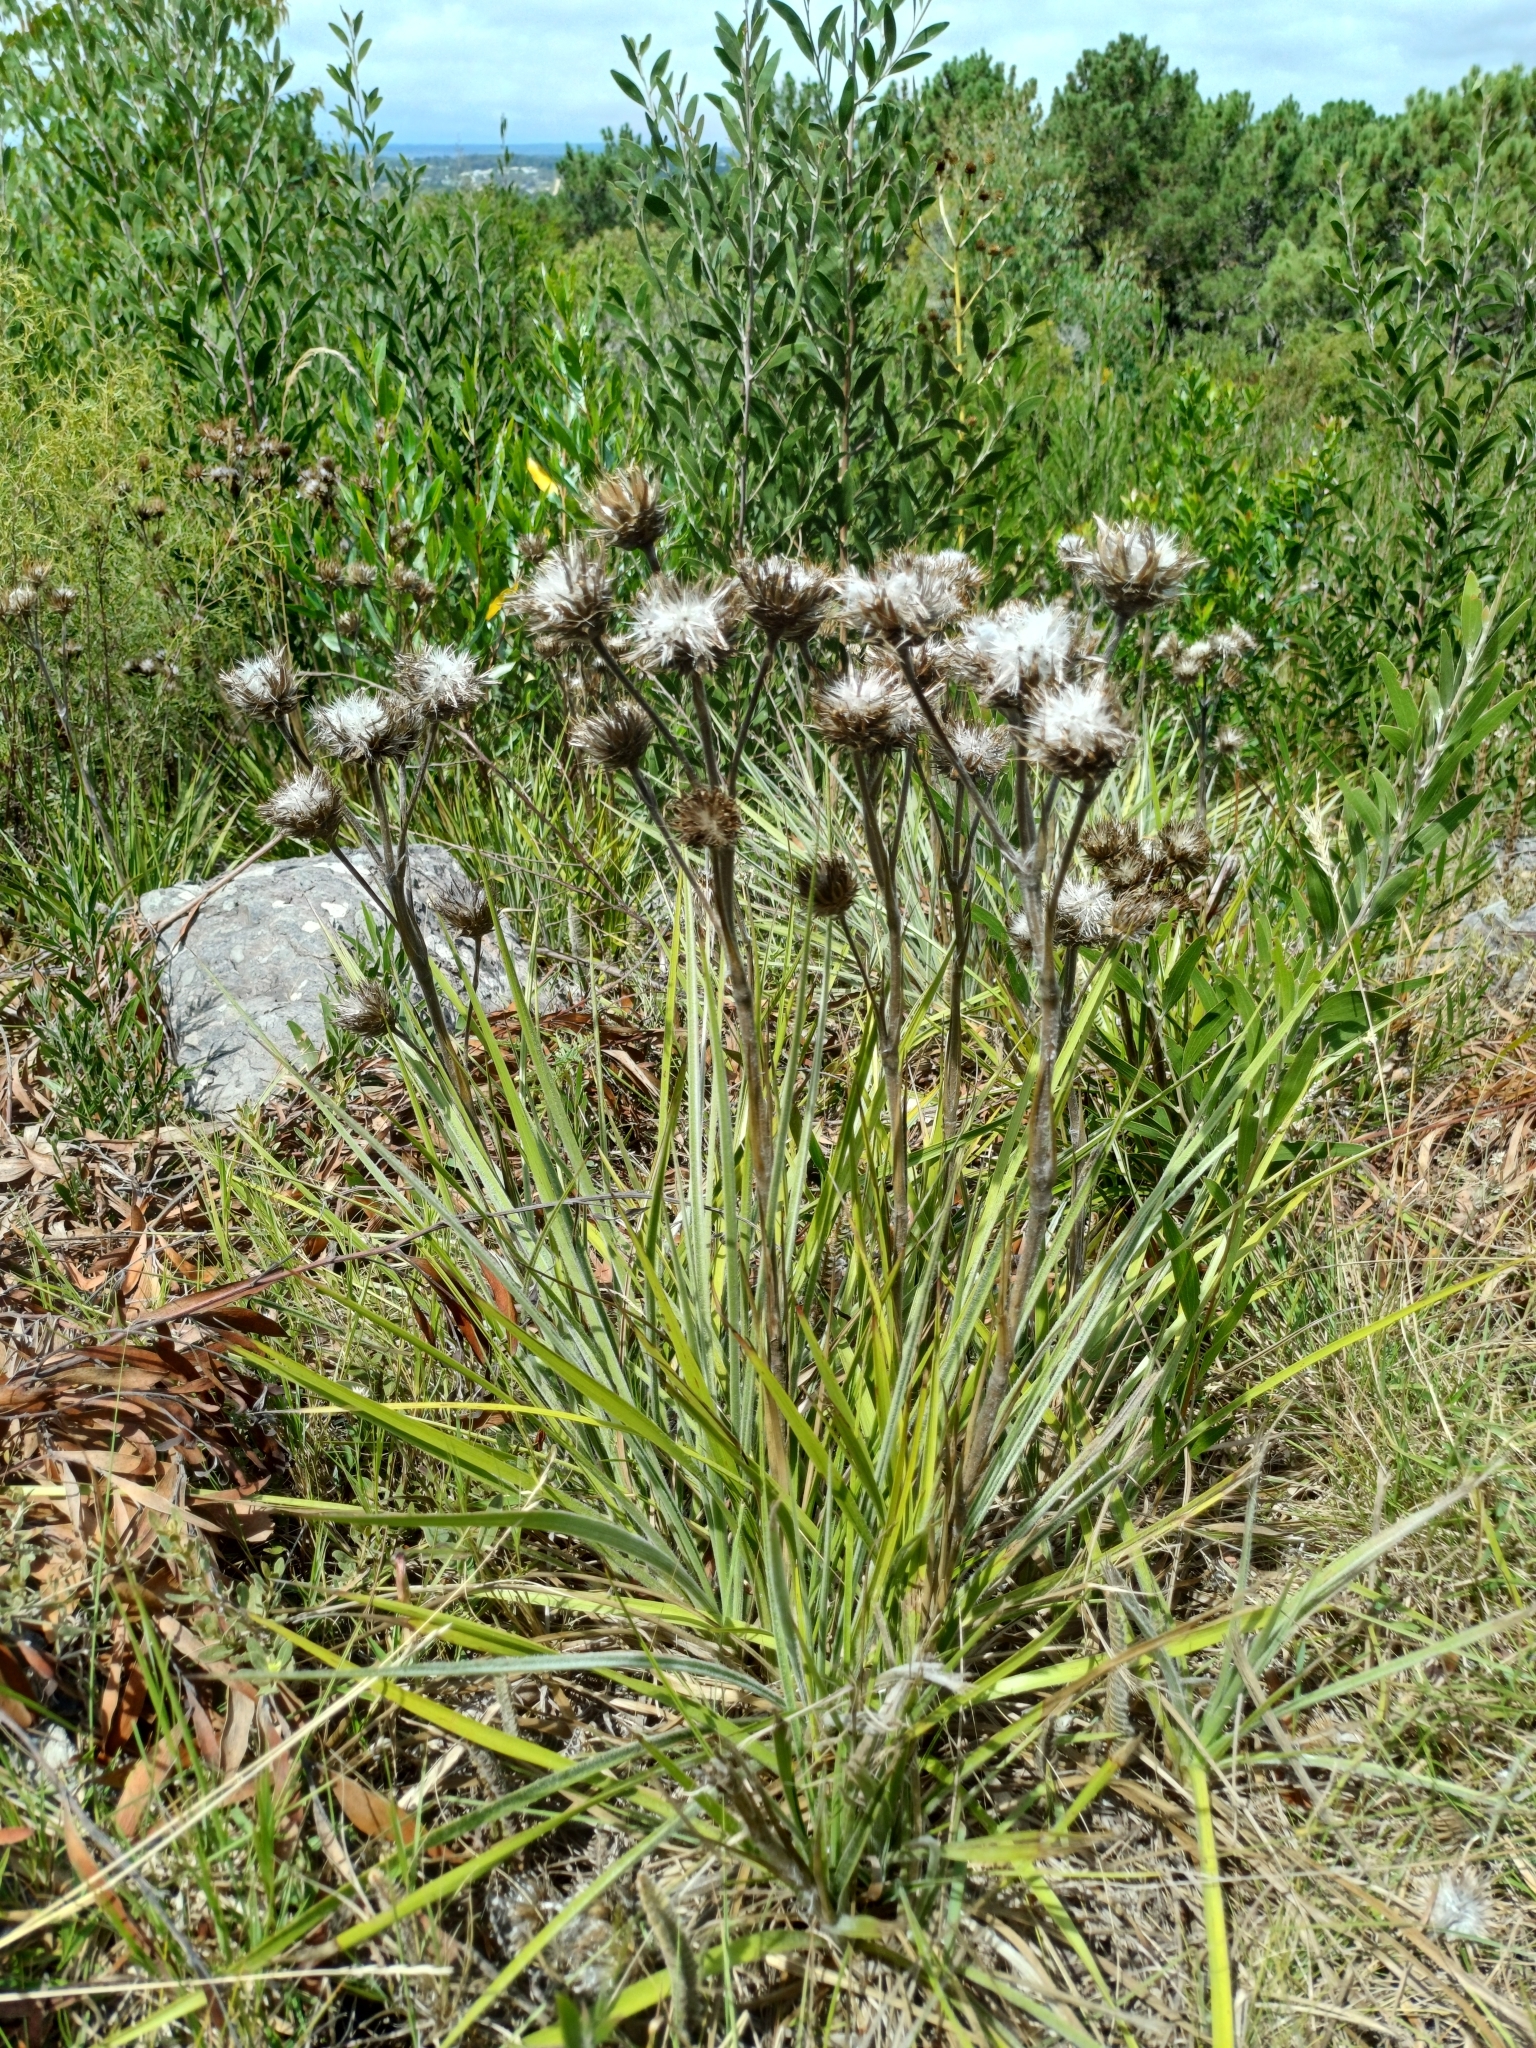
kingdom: Plantae
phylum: Tracheophyta
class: Magnoliopsida
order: Asterales
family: Asteraceae
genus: Schlechtendalia
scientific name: Schlechtendalia luzulifolia
